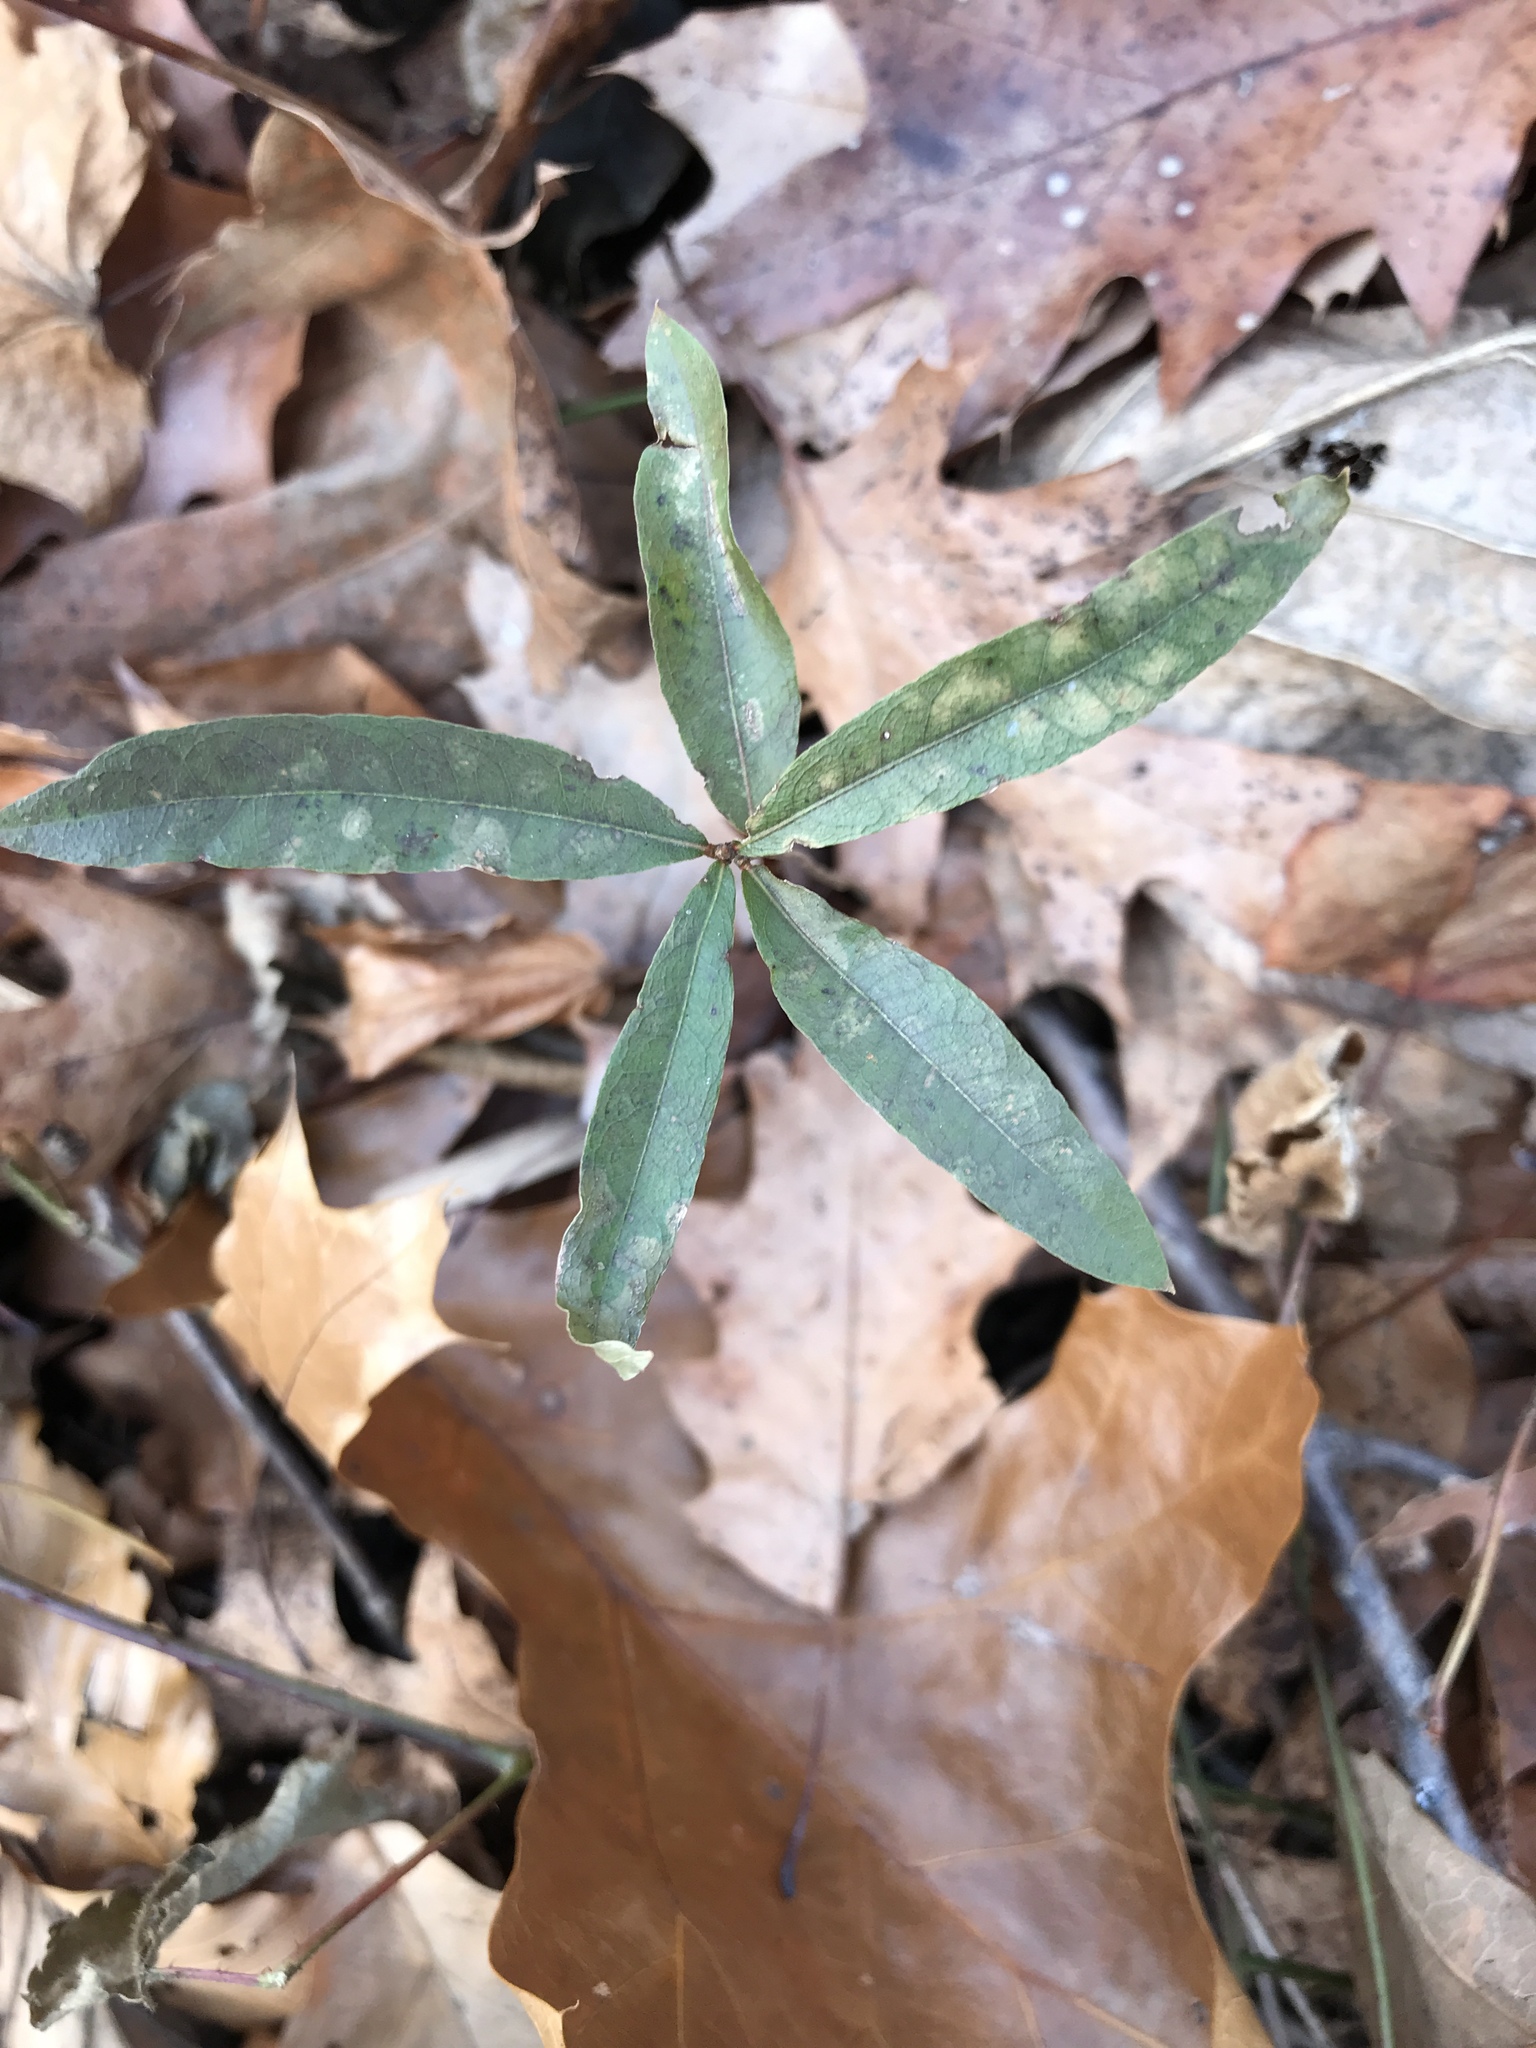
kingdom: Plantae
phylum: Tracheophyta
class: Magnoliopsida
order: Fagales
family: Fagaceae
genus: Quercus
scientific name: Quercus phellos
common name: Willow oak
